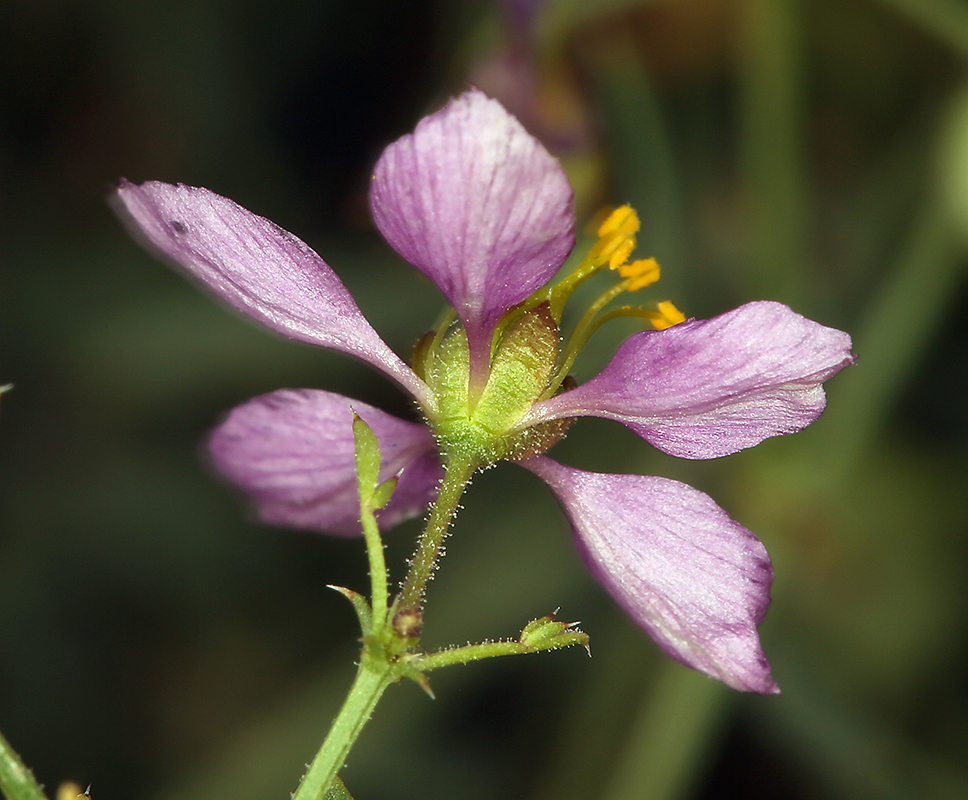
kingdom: Plantae
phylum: Tracheophyta
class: Magnoliopsida
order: Zygophyllales
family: Zygophyllaceae
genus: Fagonia
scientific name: Fagonia laevis
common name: California fagonbush
